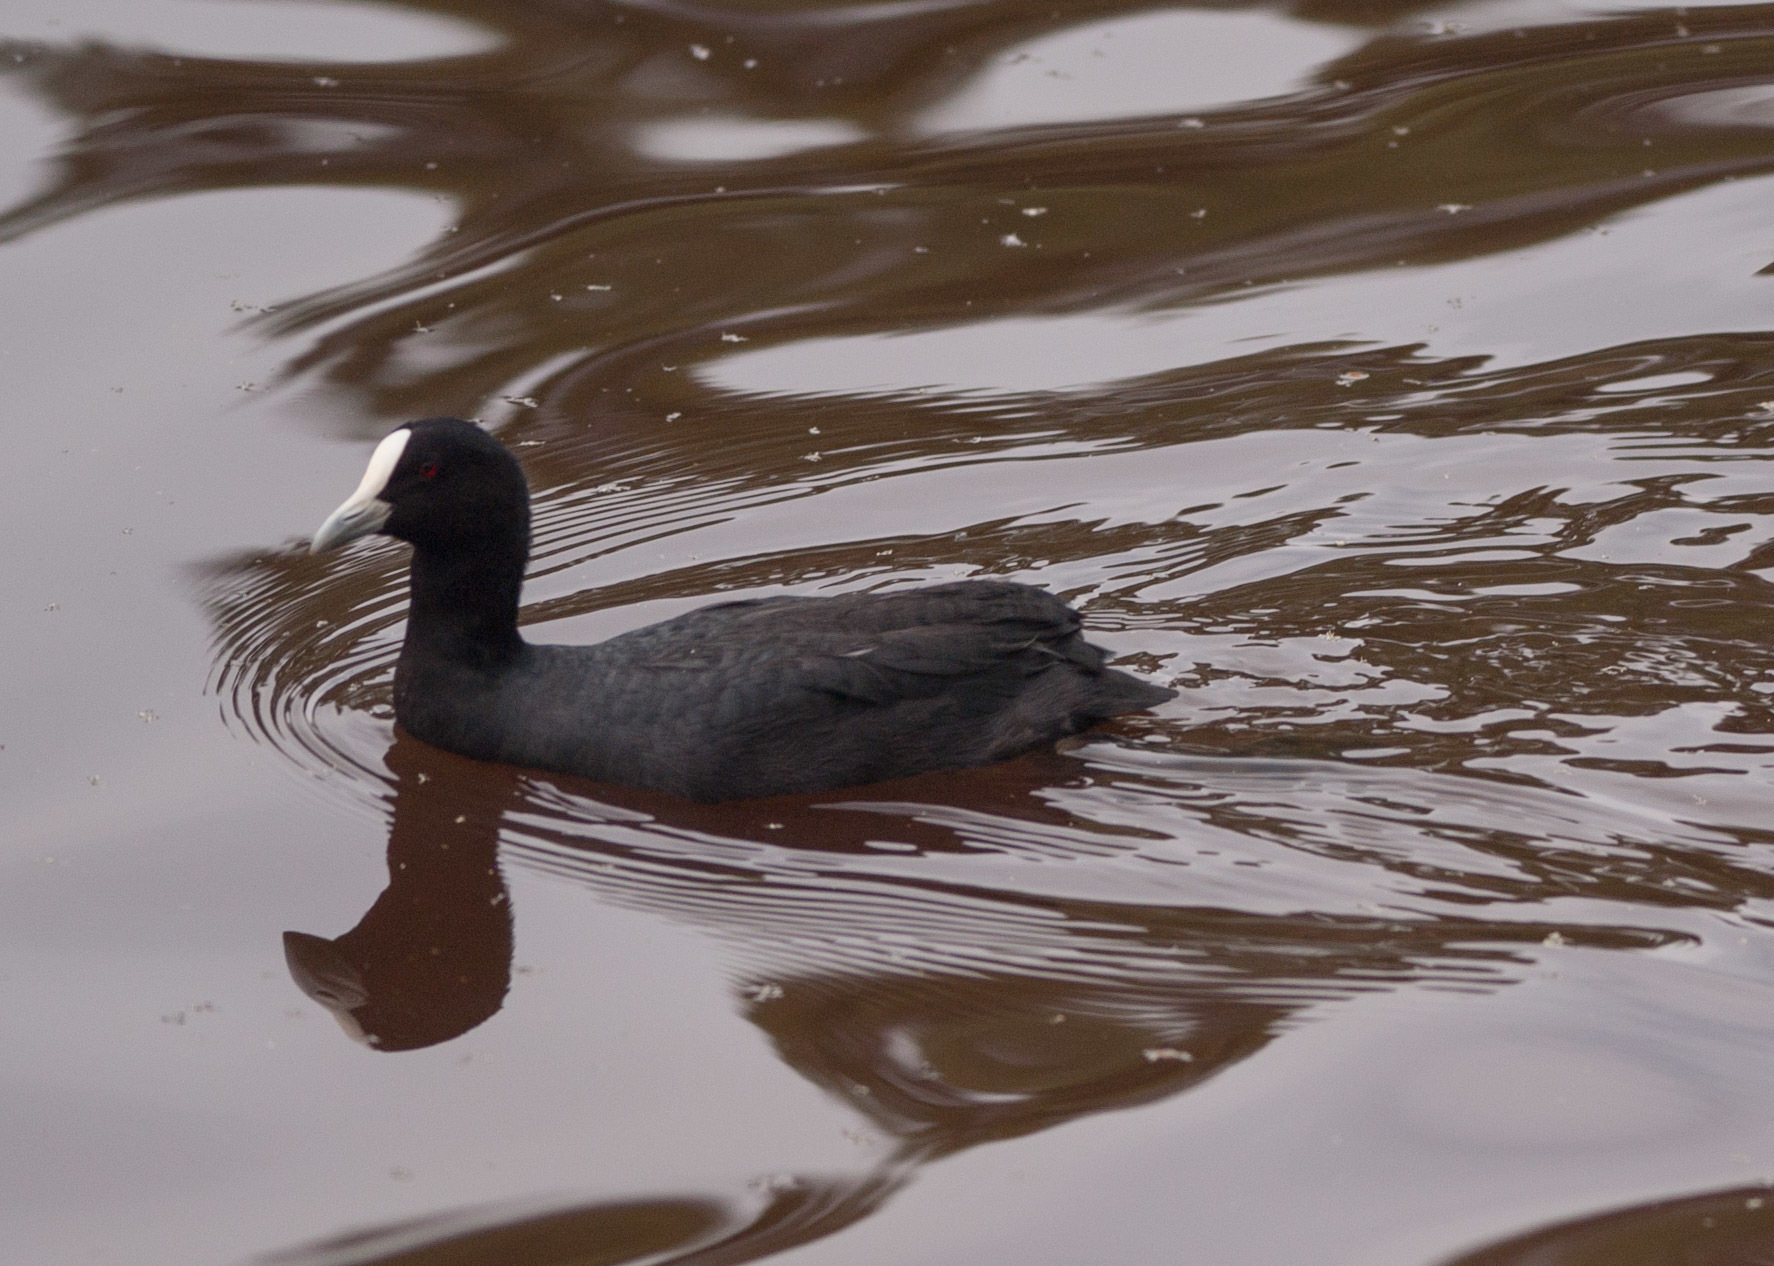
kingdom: Animalia
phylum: Chordata
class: Aves
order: Gruiformes
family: Rallidae
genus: Fulica
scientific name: Fulica atra
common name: Eurasian coot
